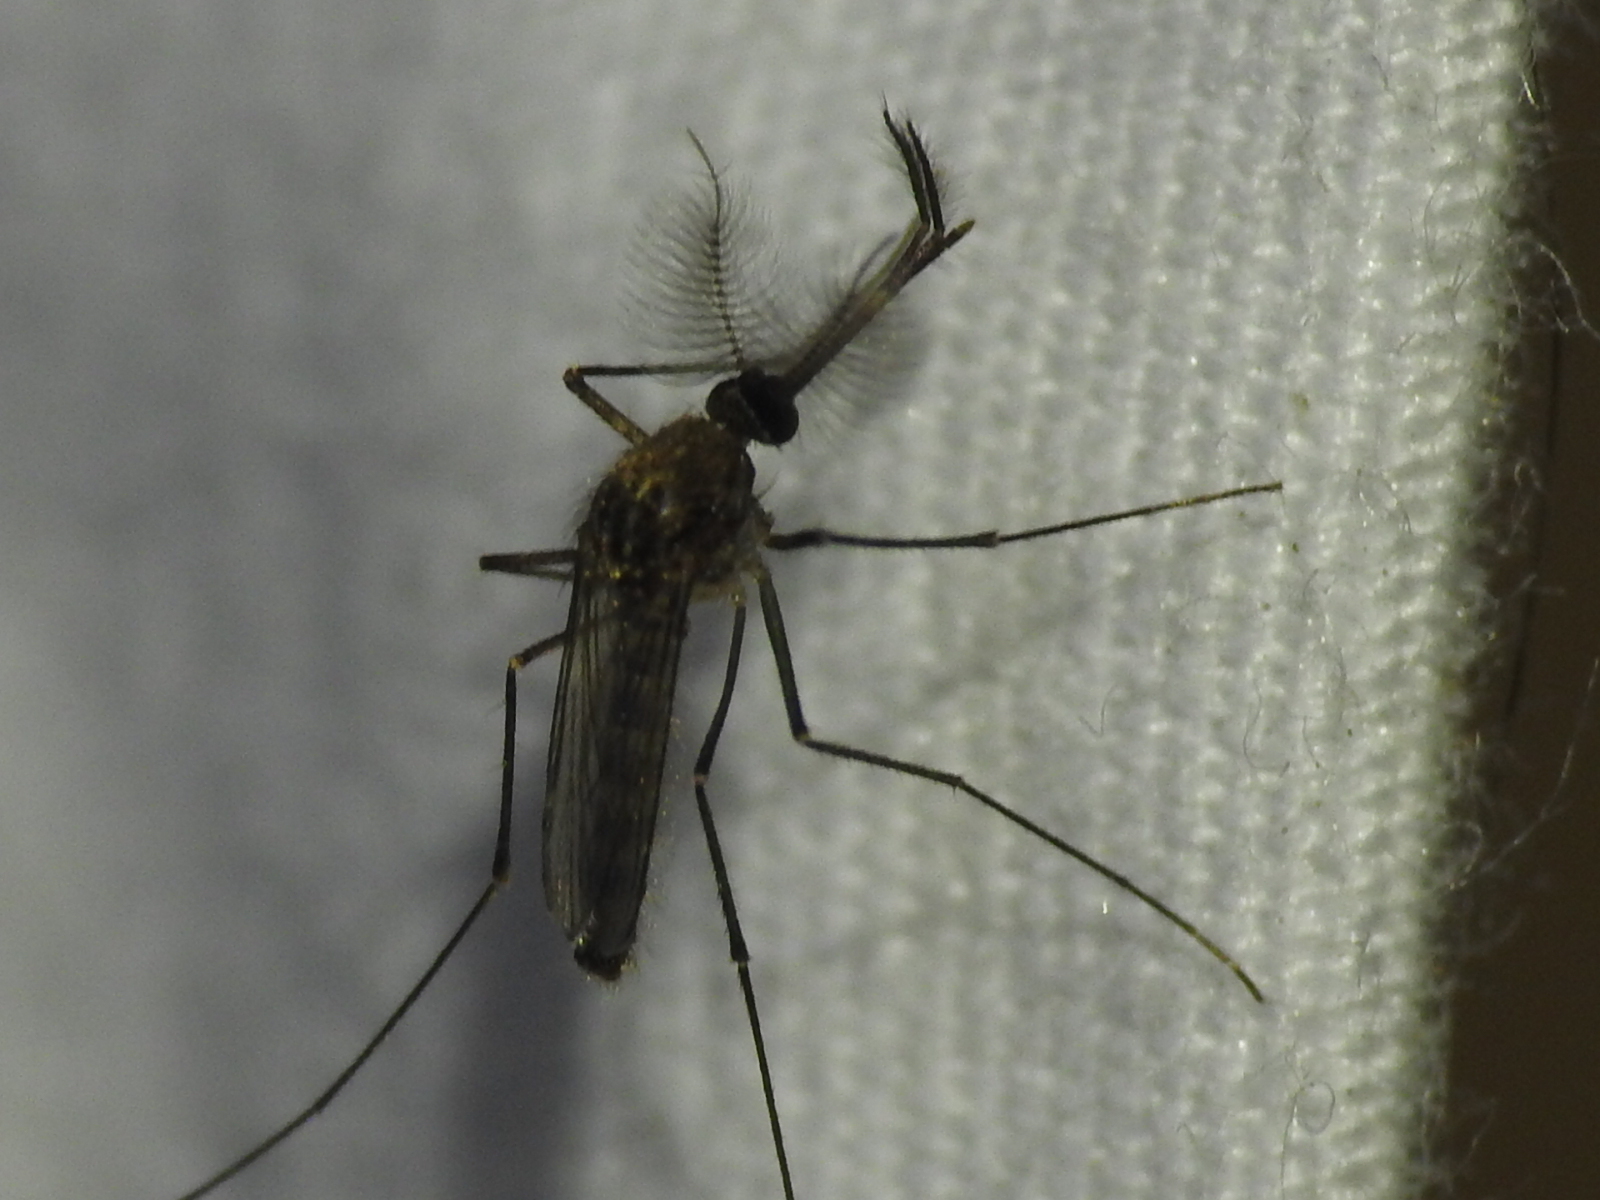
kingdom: Animalia
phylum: Arthropoda
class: Insecta
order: Diptera
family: Culicidae
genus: Culex
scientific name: Culex erraticus
